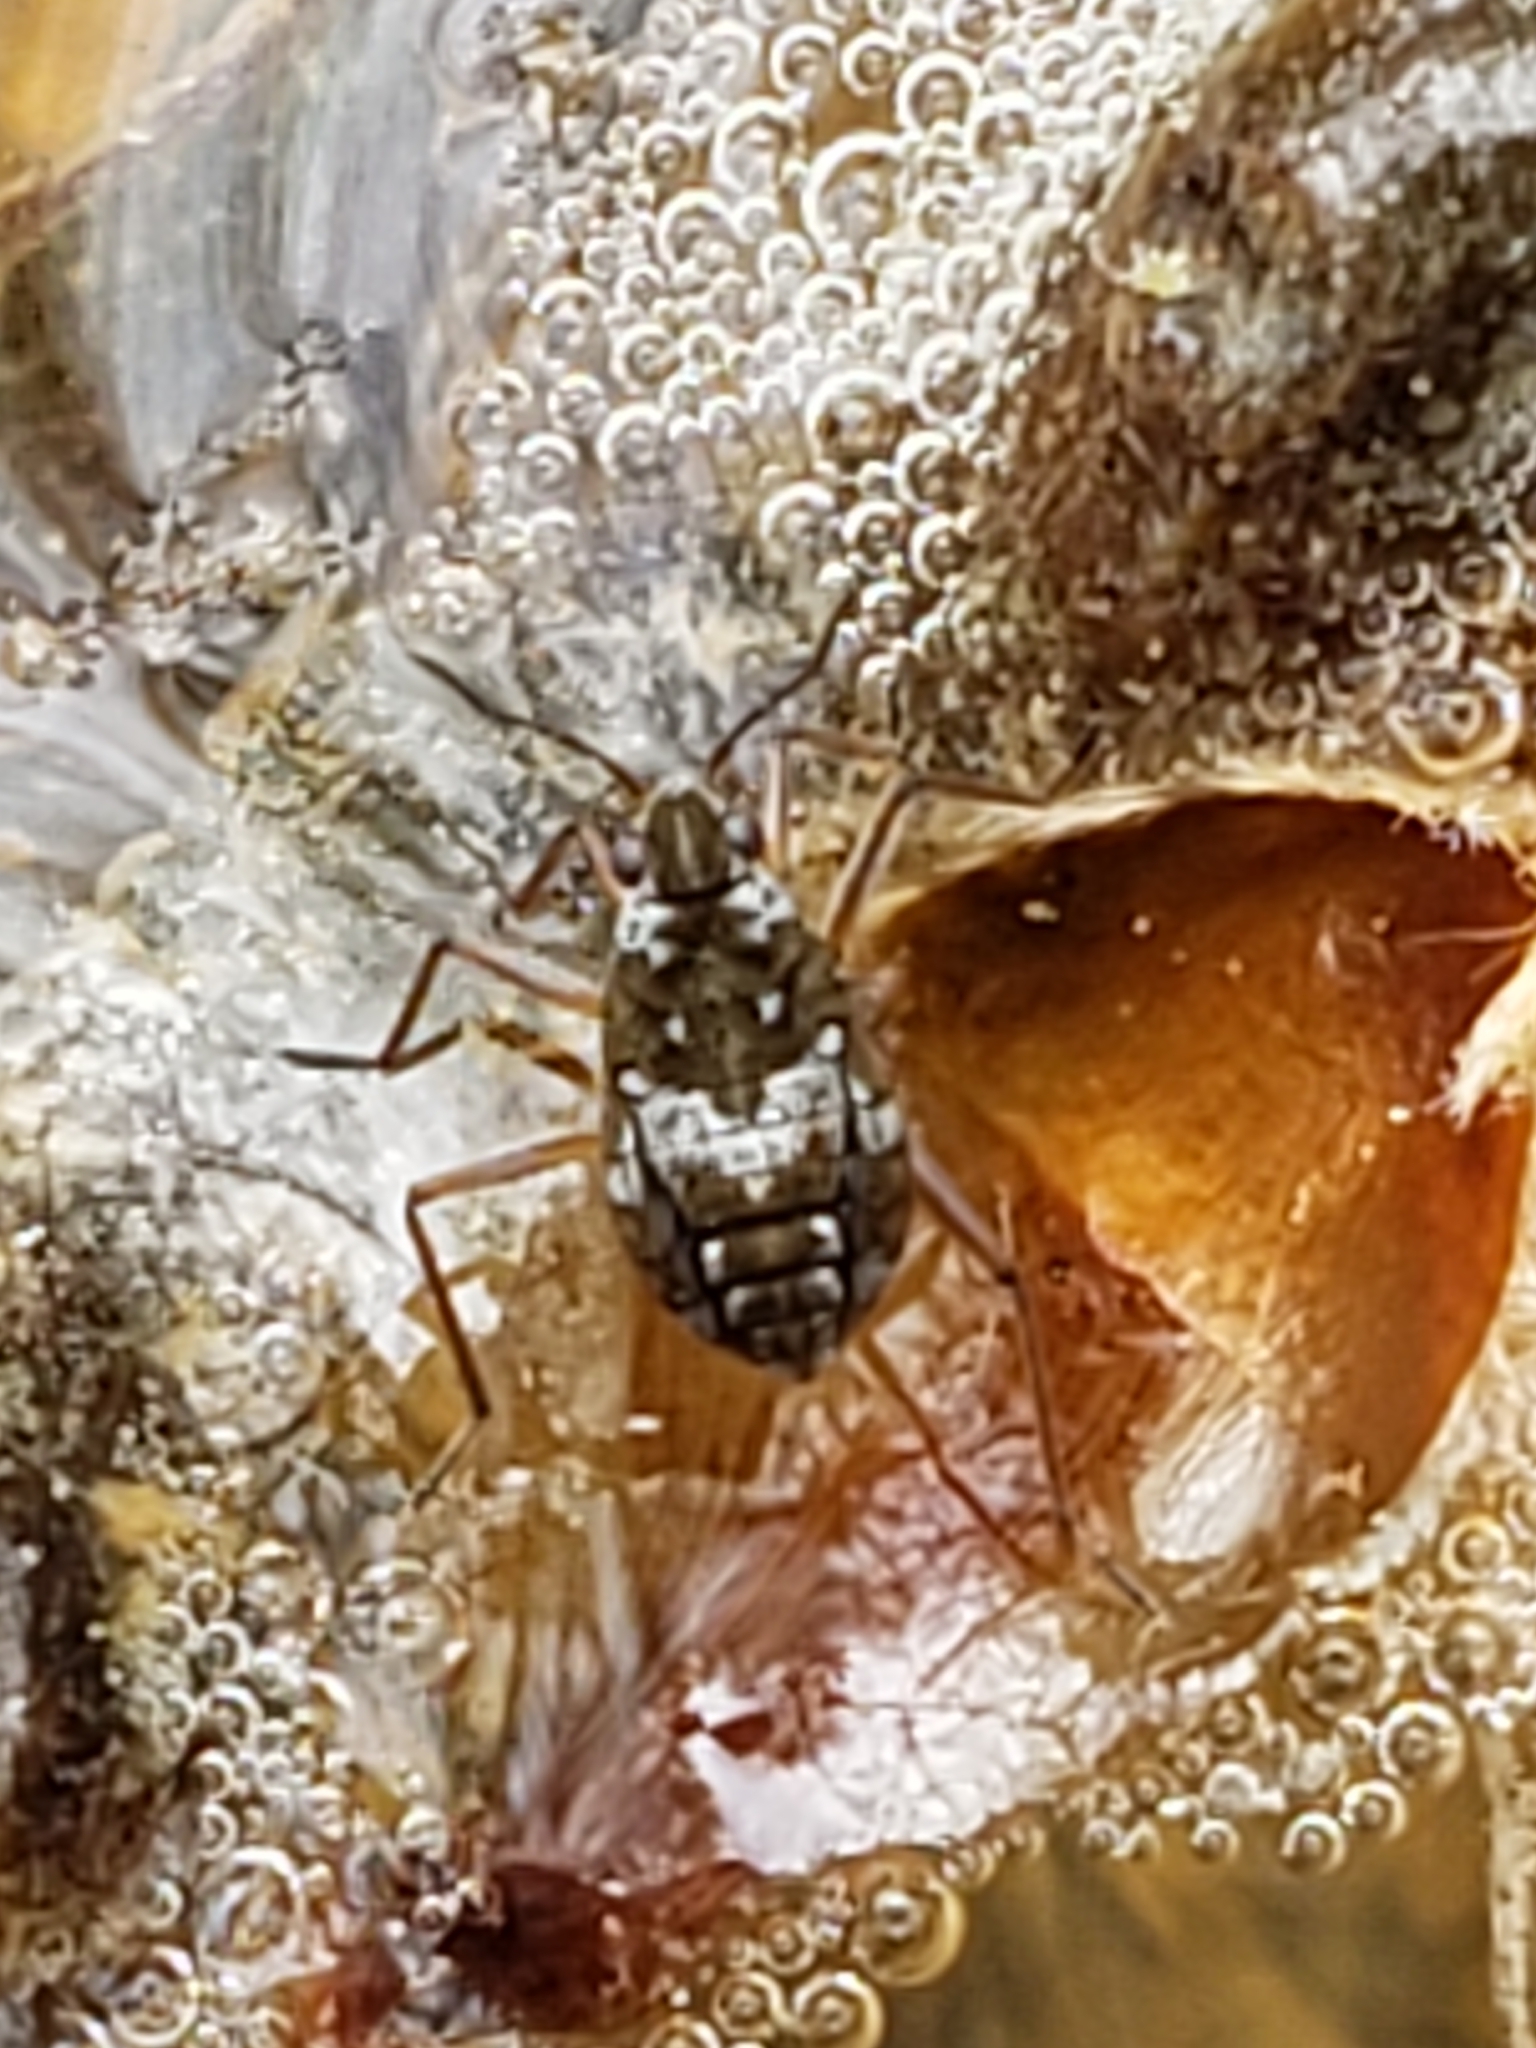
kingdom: Animalia
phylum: Arthropoda
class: Insecta
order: Hemiptera
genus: Kirkaldya
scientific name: Kirkaldya
